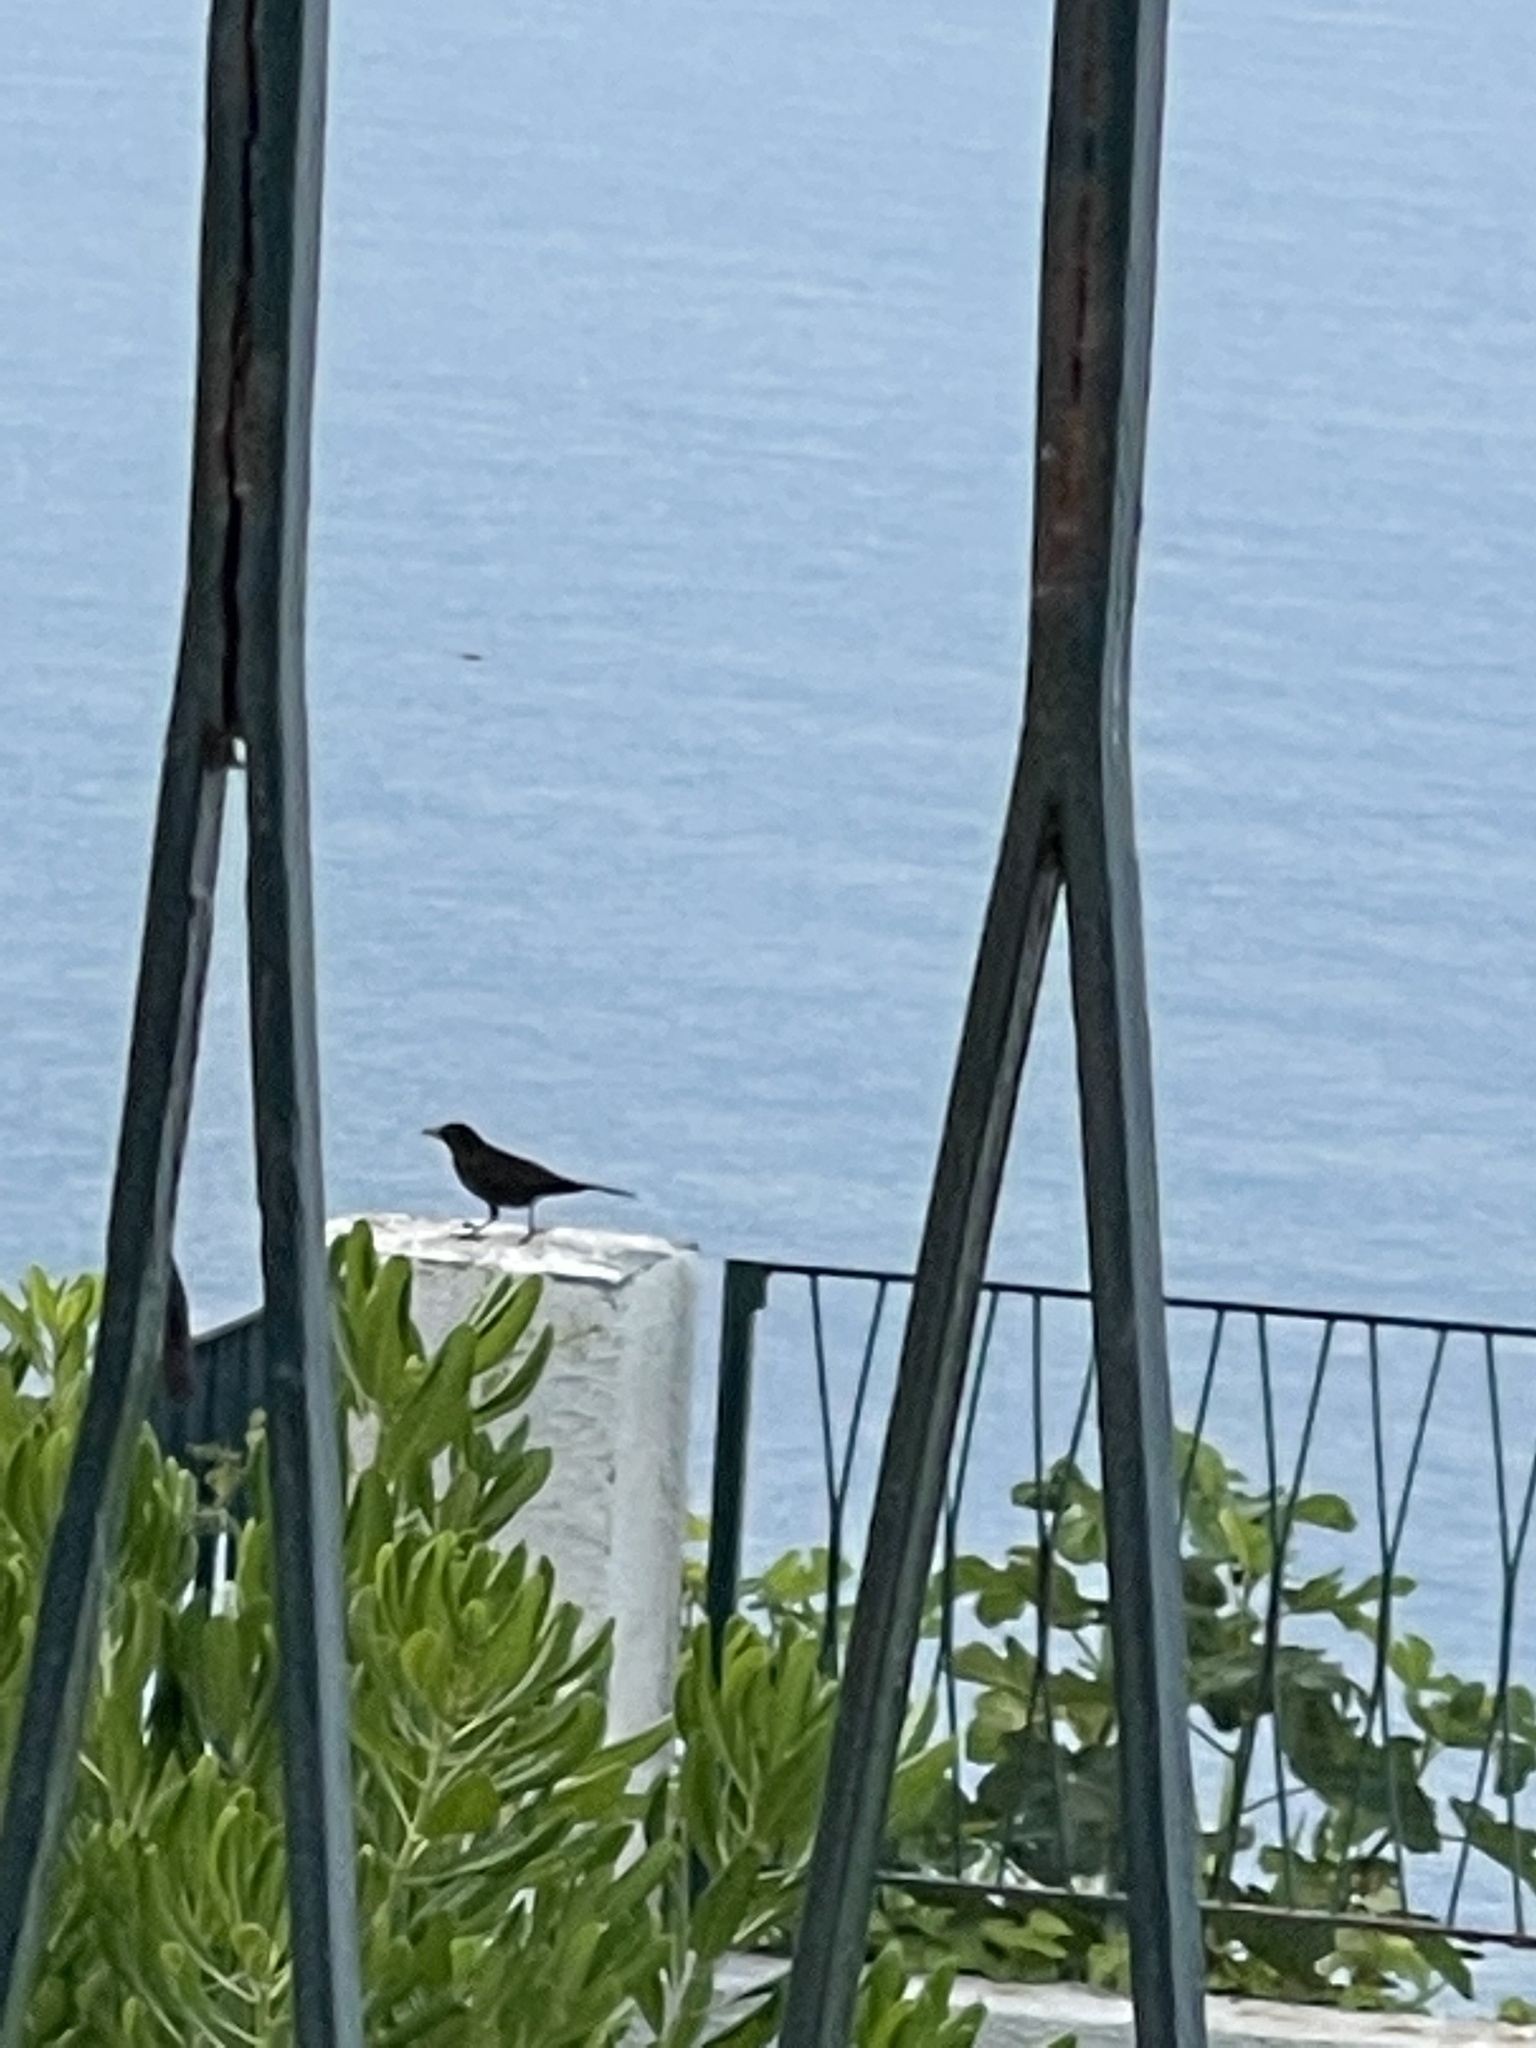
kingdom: Animalia
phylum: Chordata
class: Aves
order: Passeriformes
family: Turdidae
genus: Turdus
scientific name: Turdus merula
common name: Common blackbird
